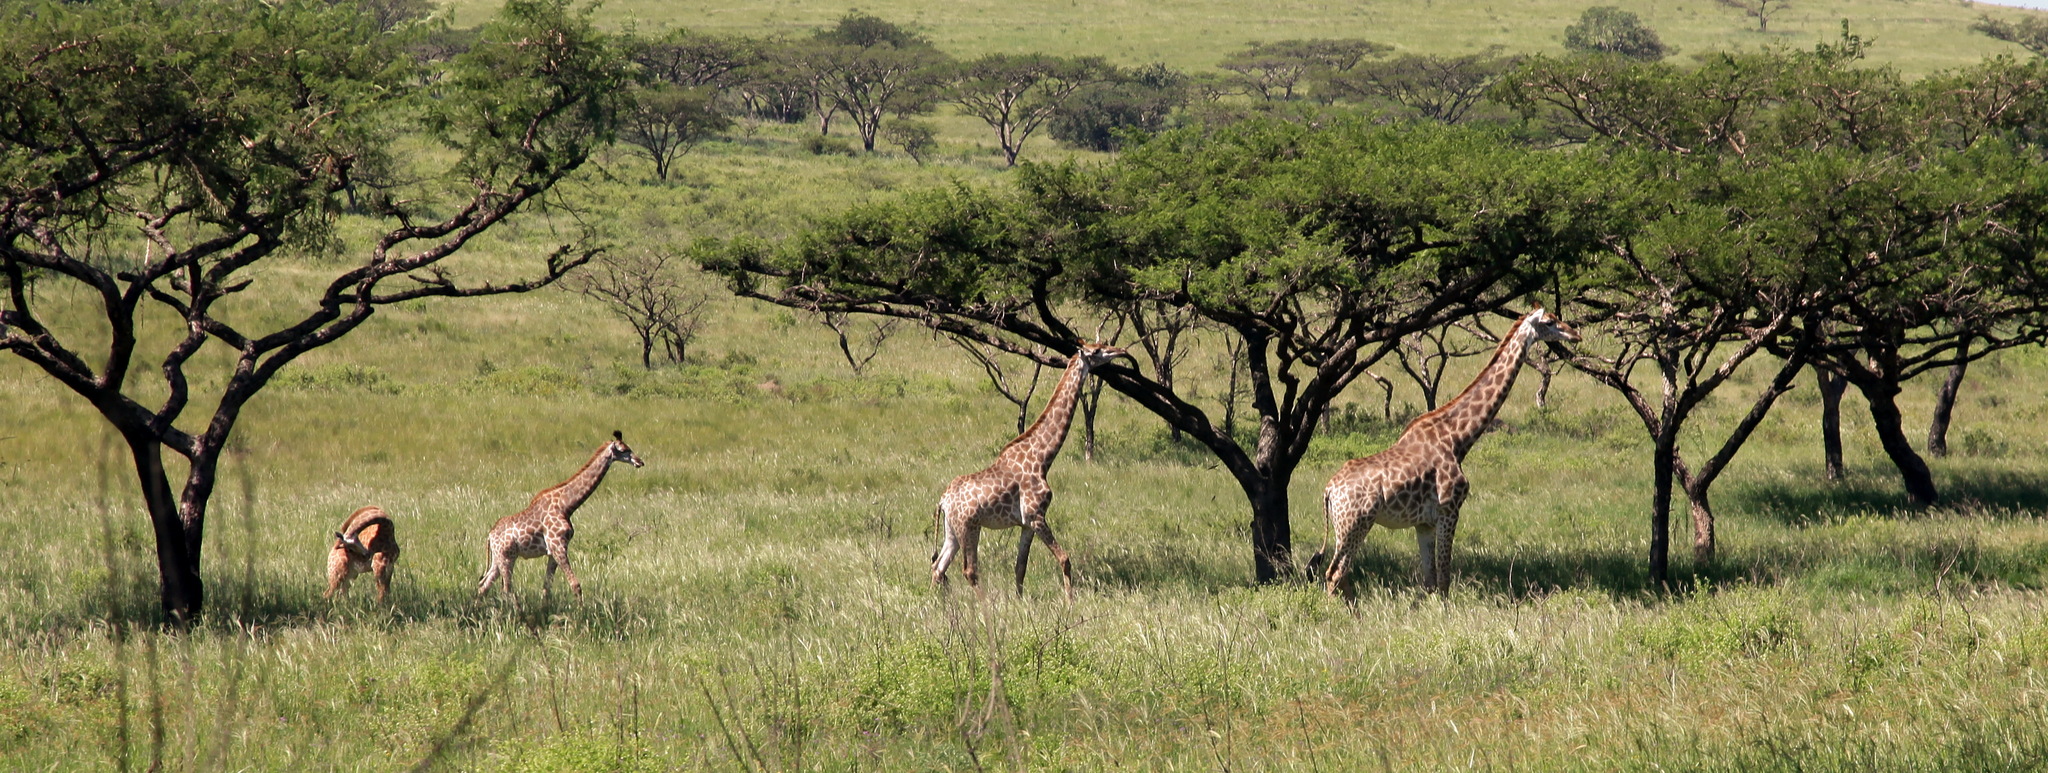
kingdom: Animalia
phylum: Chordata
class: Mammalia
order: Artiodactyla
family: Giraffidae
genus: Giraffa
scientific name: Giraffa giraffa
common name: Southern giraffe
